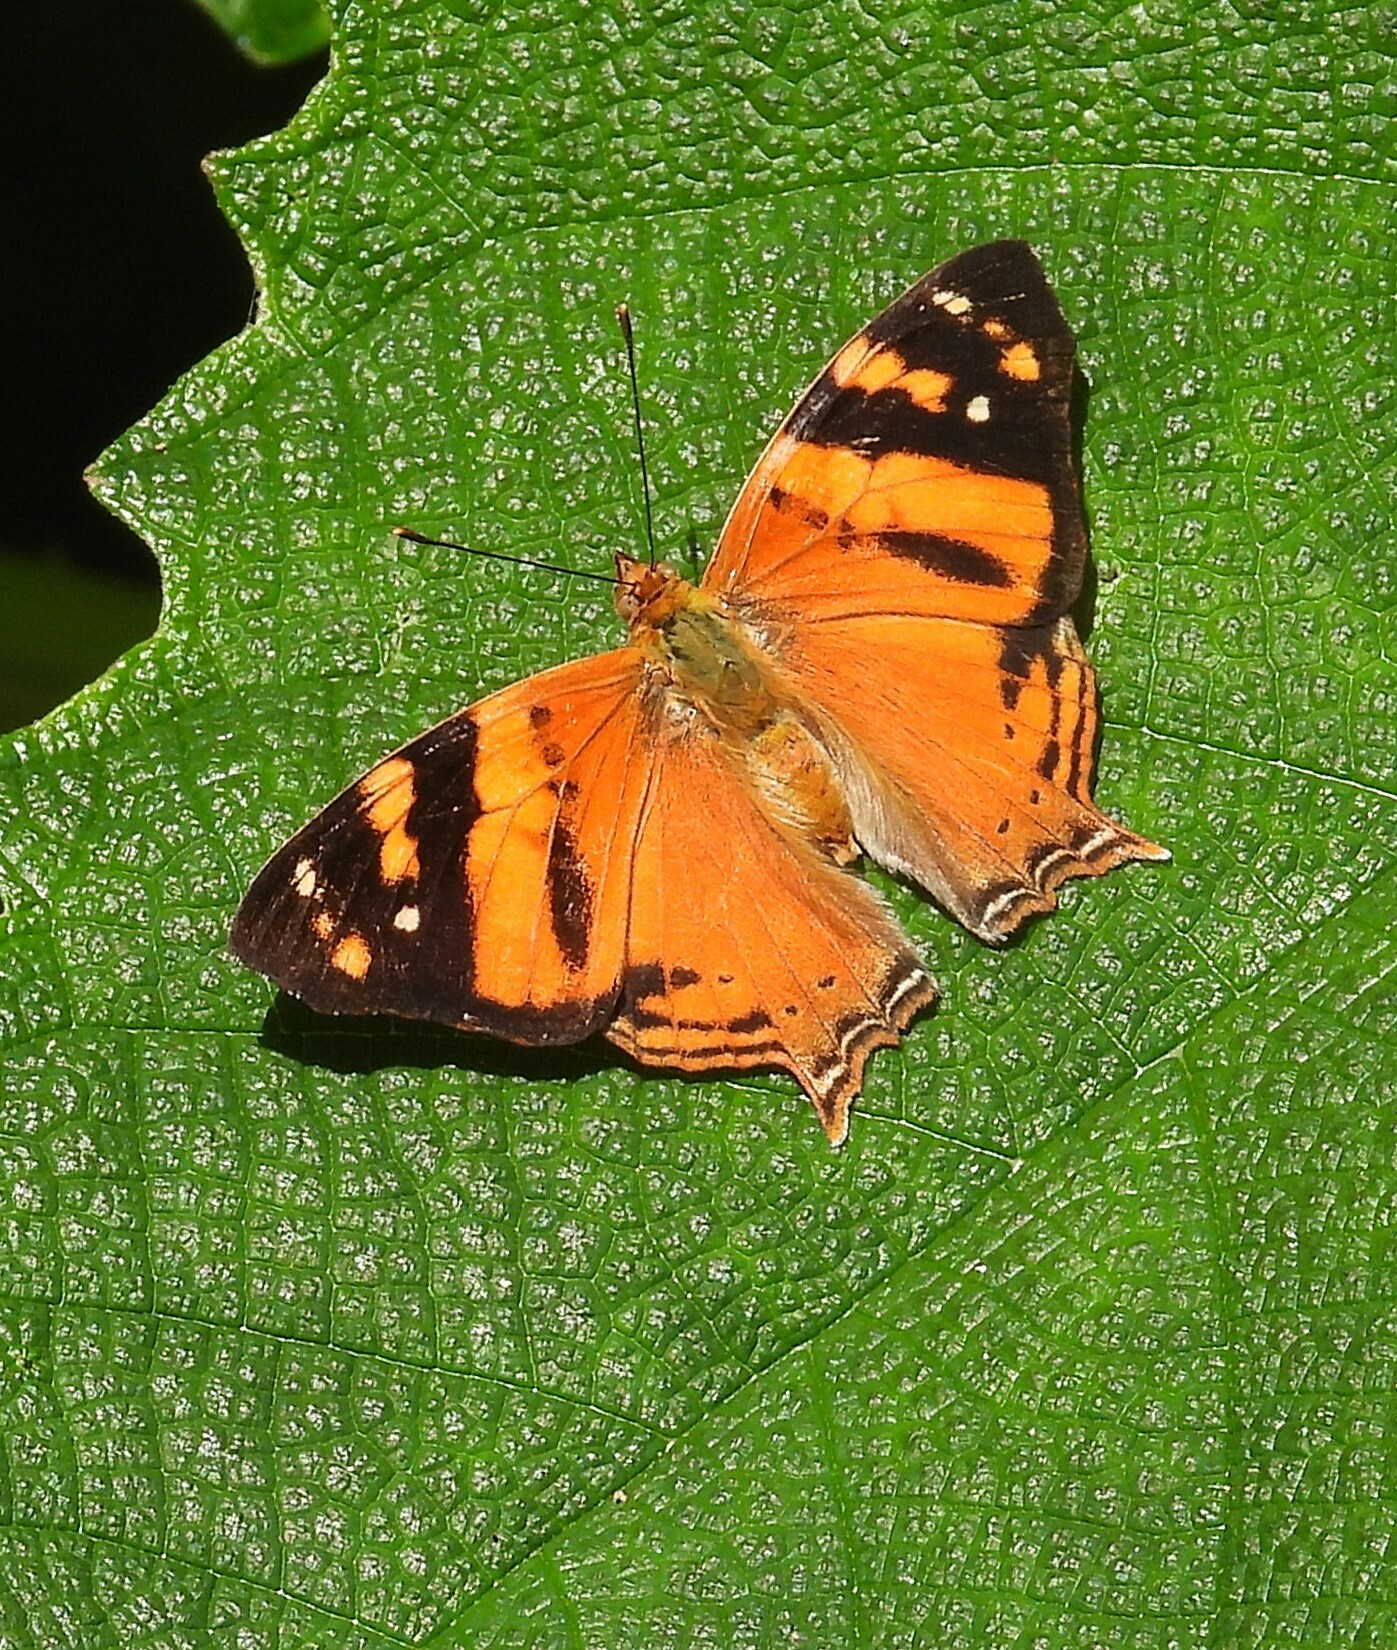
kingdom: Animalia
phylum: Arthropoda
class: Insecta
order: Lepidoptera
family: Nymphalidae
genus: Hypanartia
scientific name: Hypanartia lethe
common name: Orange mapwing
